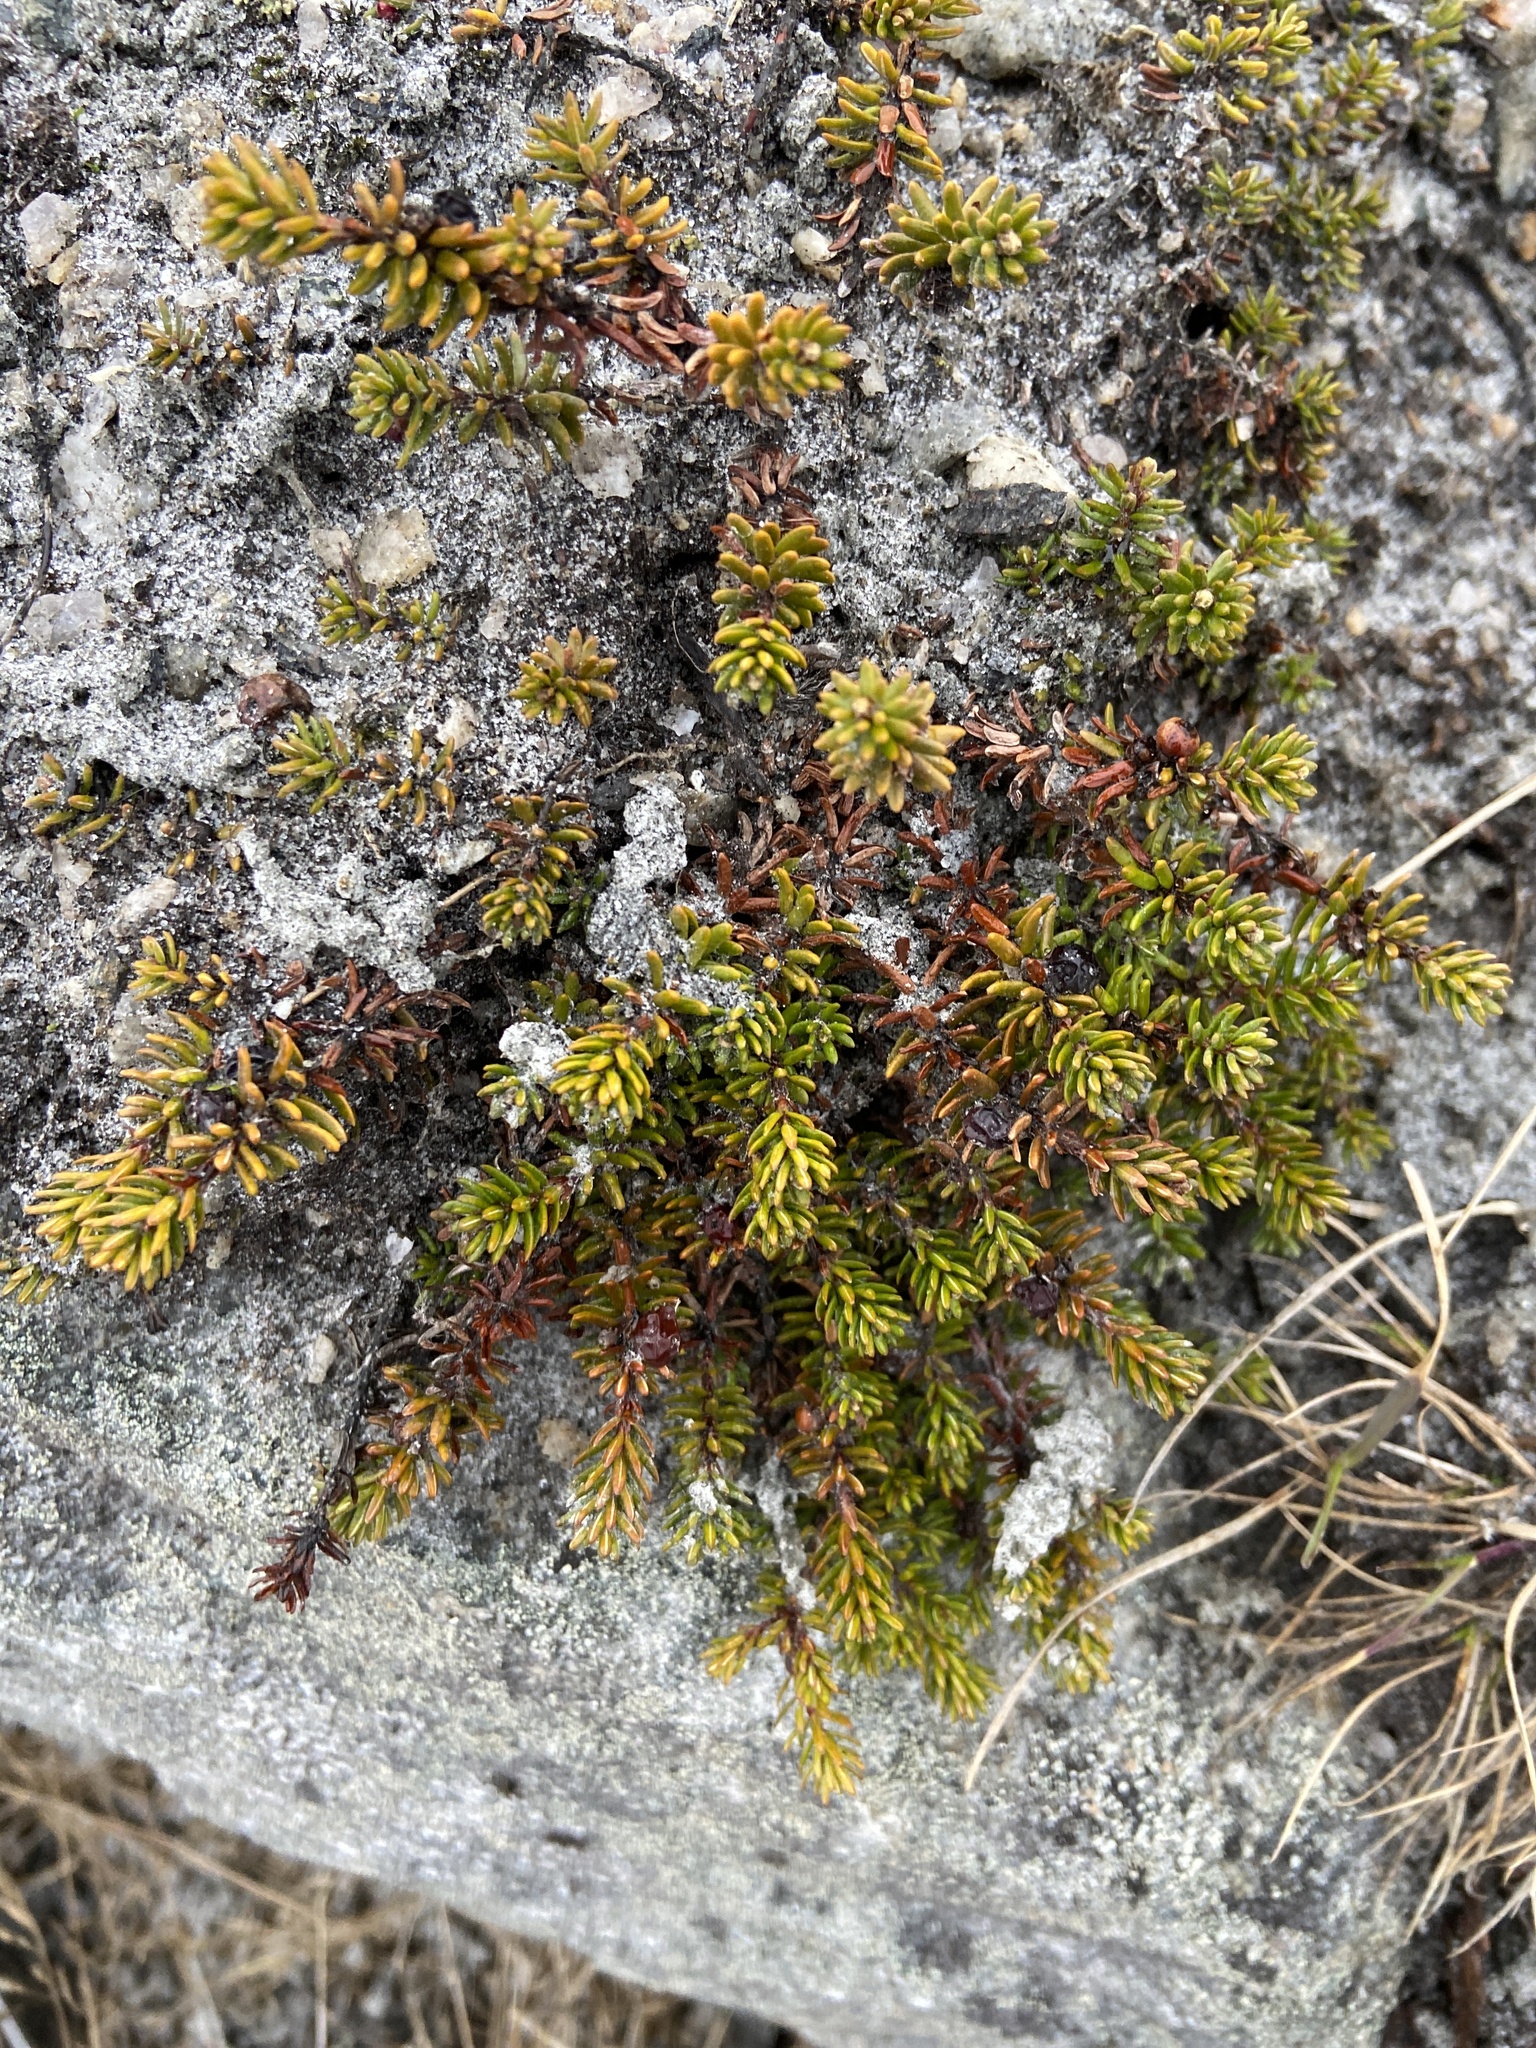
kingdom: Plantae
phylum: Tracheophyta
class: Magnoliopsida
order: Ericales
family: Ericaceae
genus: Empetrum
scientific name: Empetrum nigrum
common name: Black crowberry
